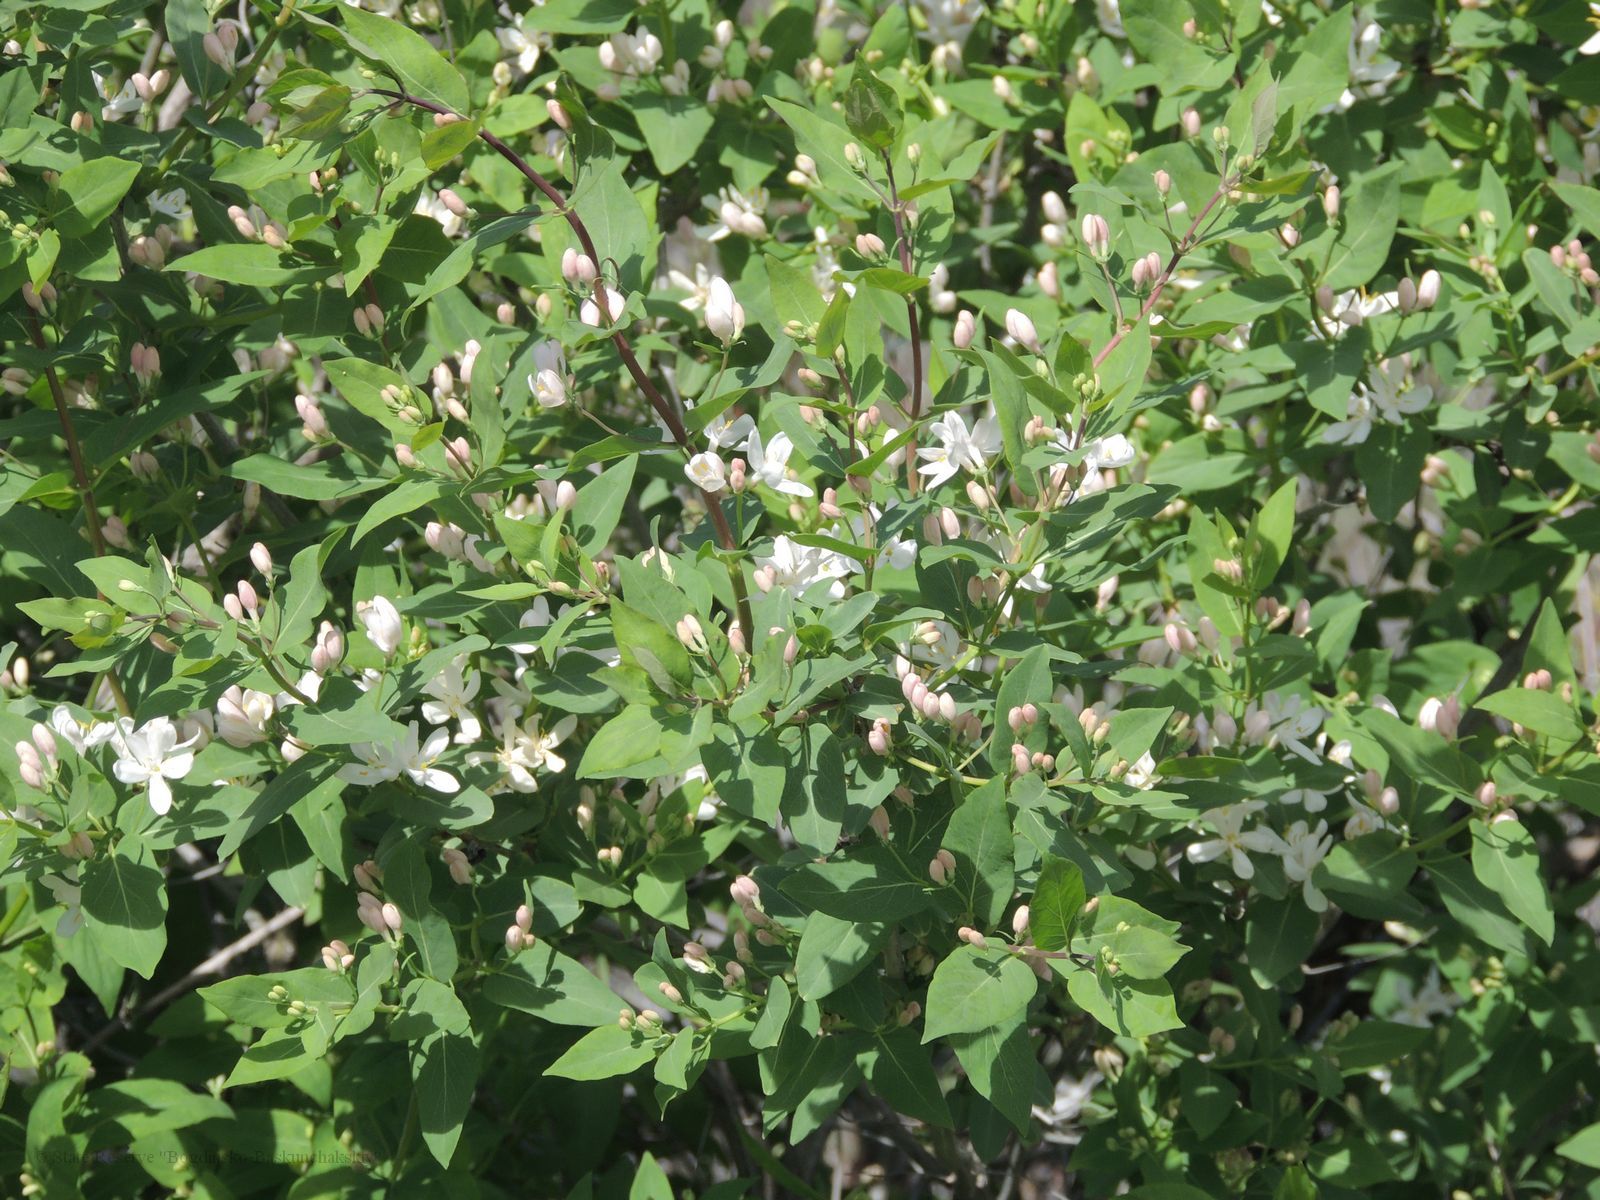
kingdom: Plantae
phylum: Tracheophyta
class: Magnoliopsida
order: Dipsacales
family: Caprifoliaceae
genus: Lonicera
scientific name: Lonicera tatarica
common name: Tatarian honeysuckle
